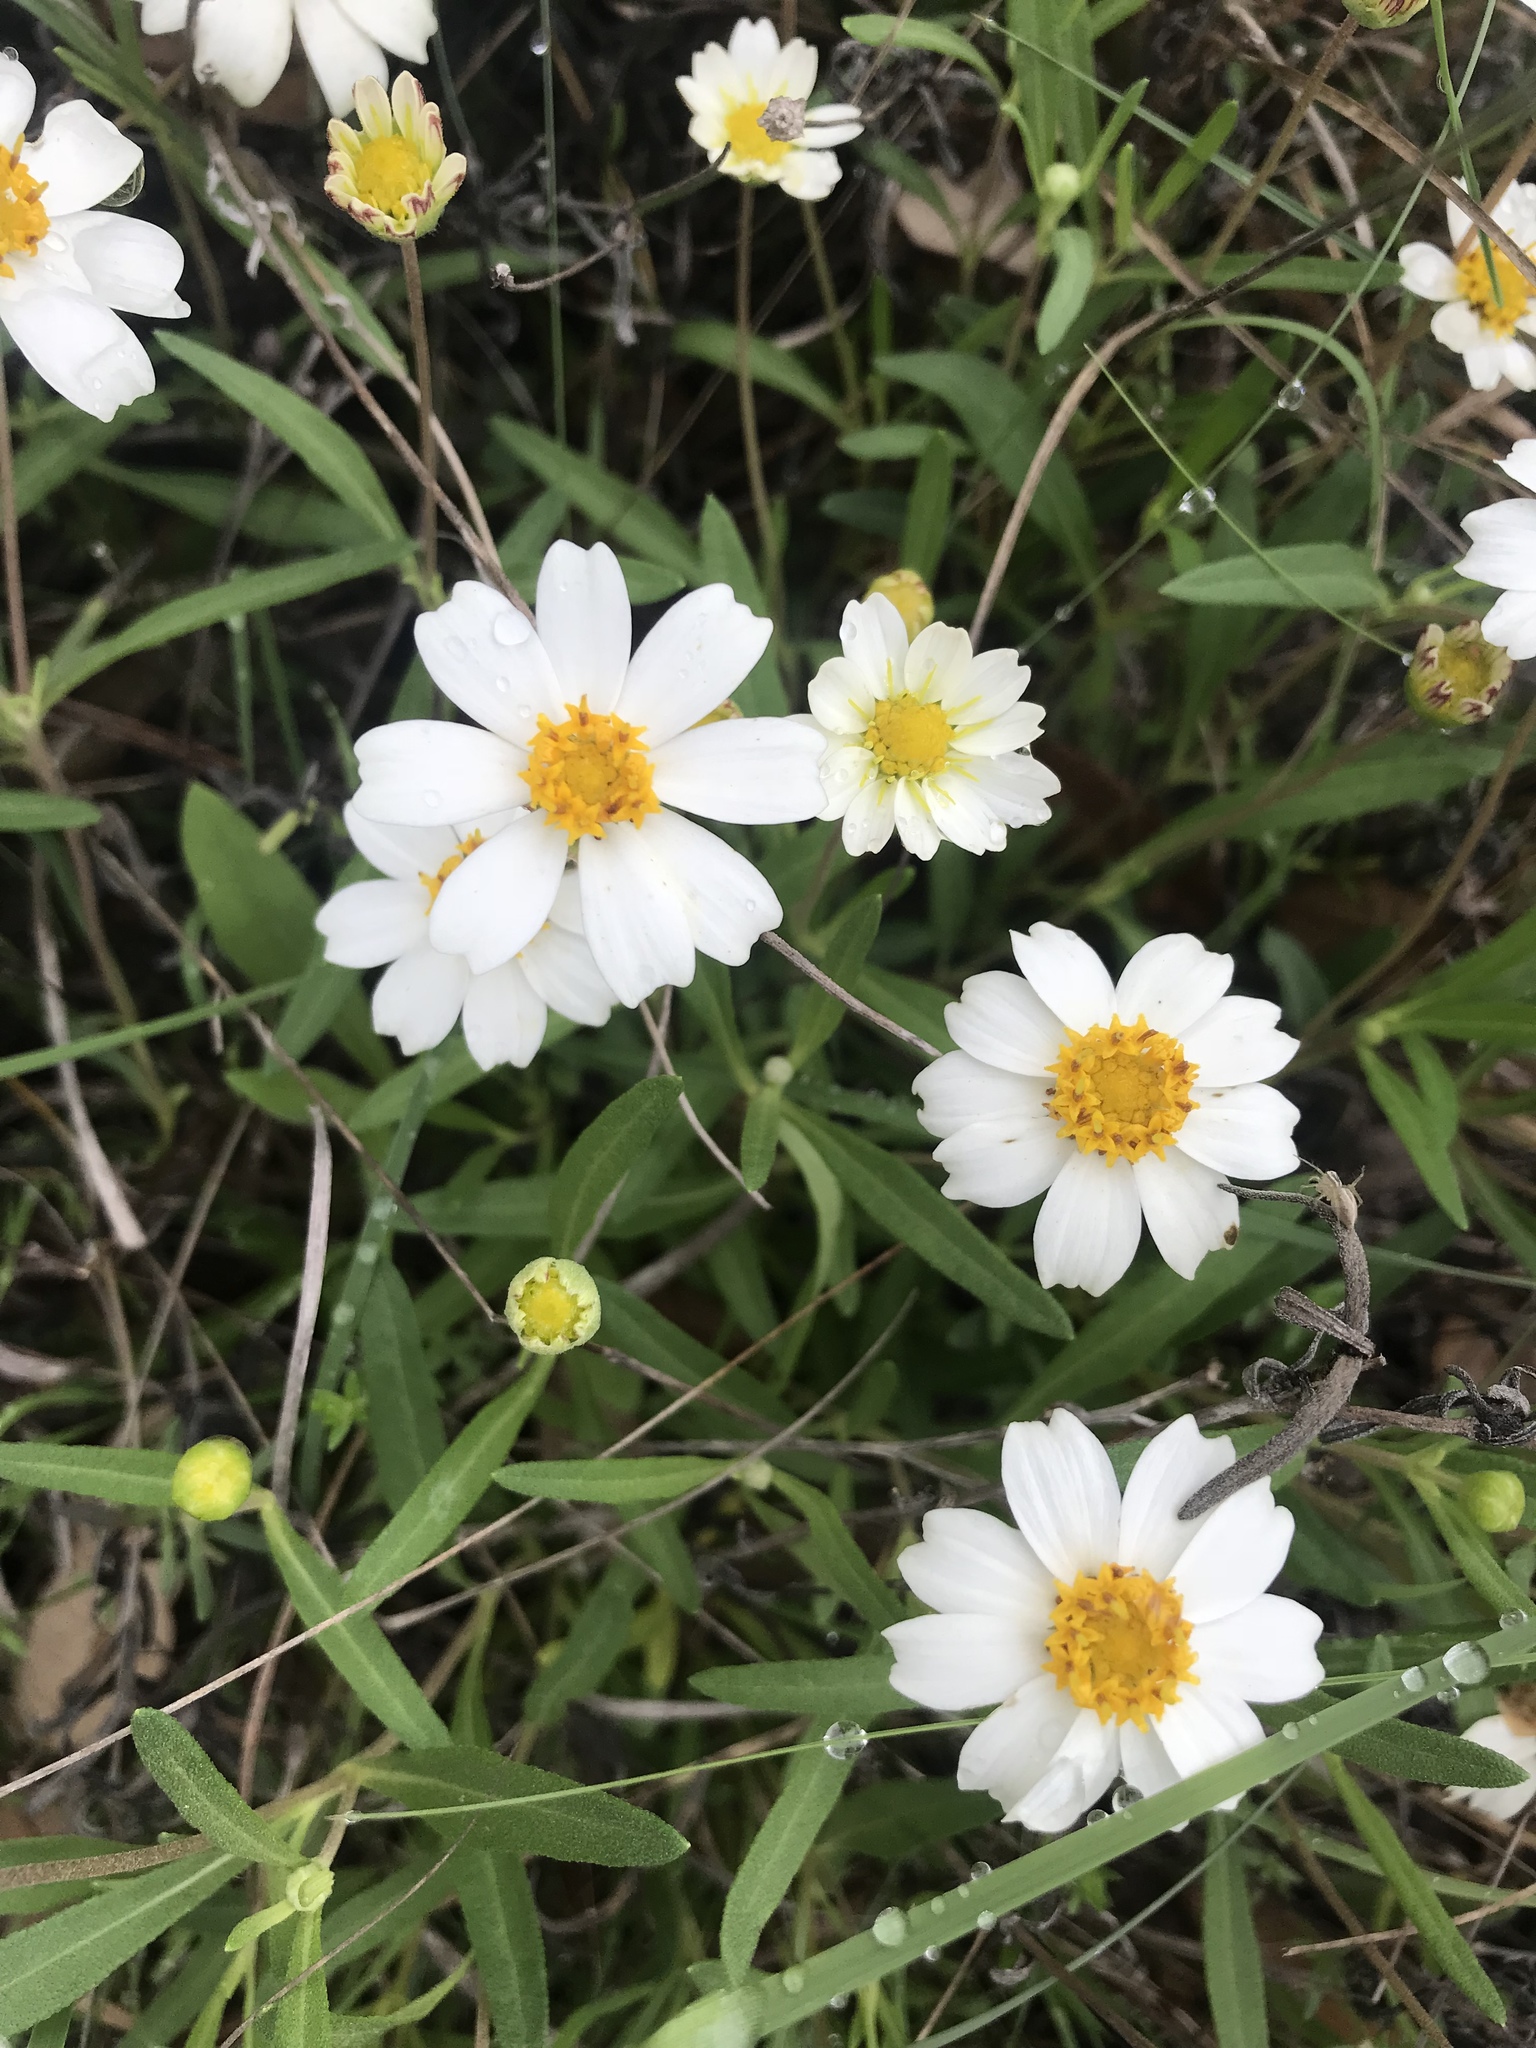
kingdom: Plantae
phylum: Tracheophyta
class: Magnoliopsida
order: Asterales
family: Asteraceae
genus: Melampodium
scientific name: Melampodium leucanthum
